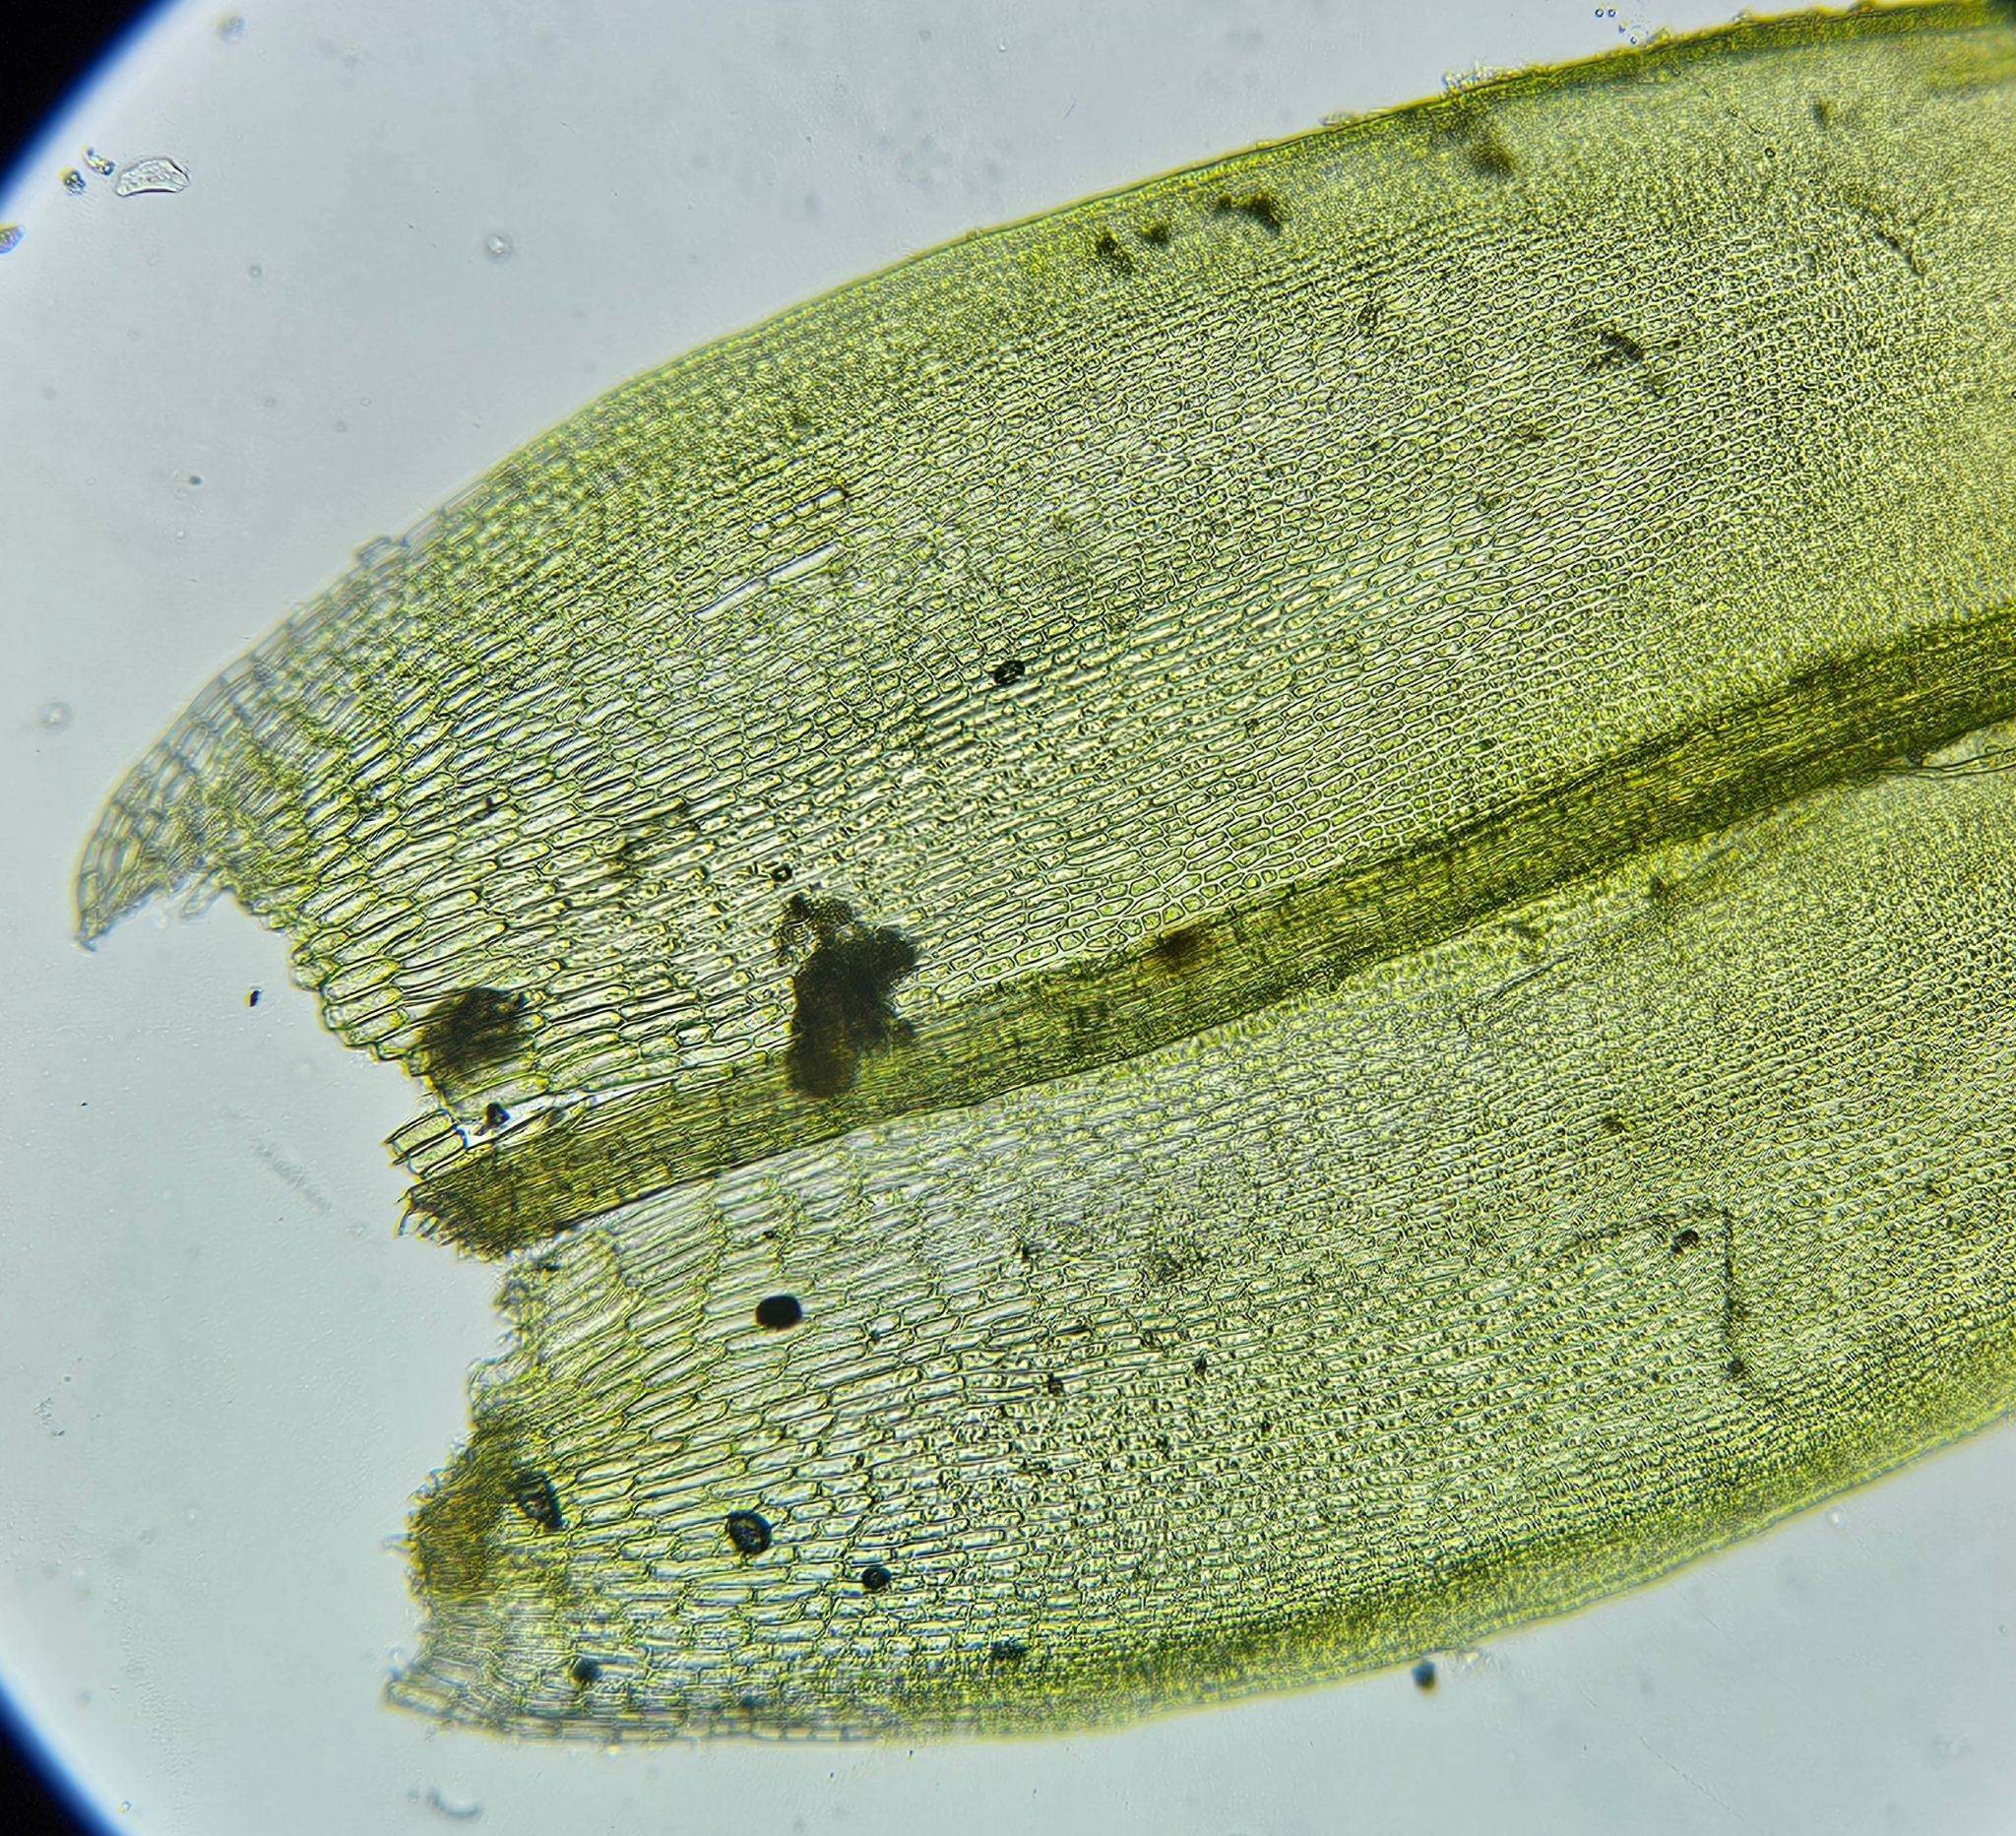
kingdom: Plantae
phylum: Bryophyta
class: Bryopsida
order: Grimmiales
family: Grimmiaceae
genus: Schistidium
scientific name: Schistidium crassipilum
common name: Thickpoint bloom moss
